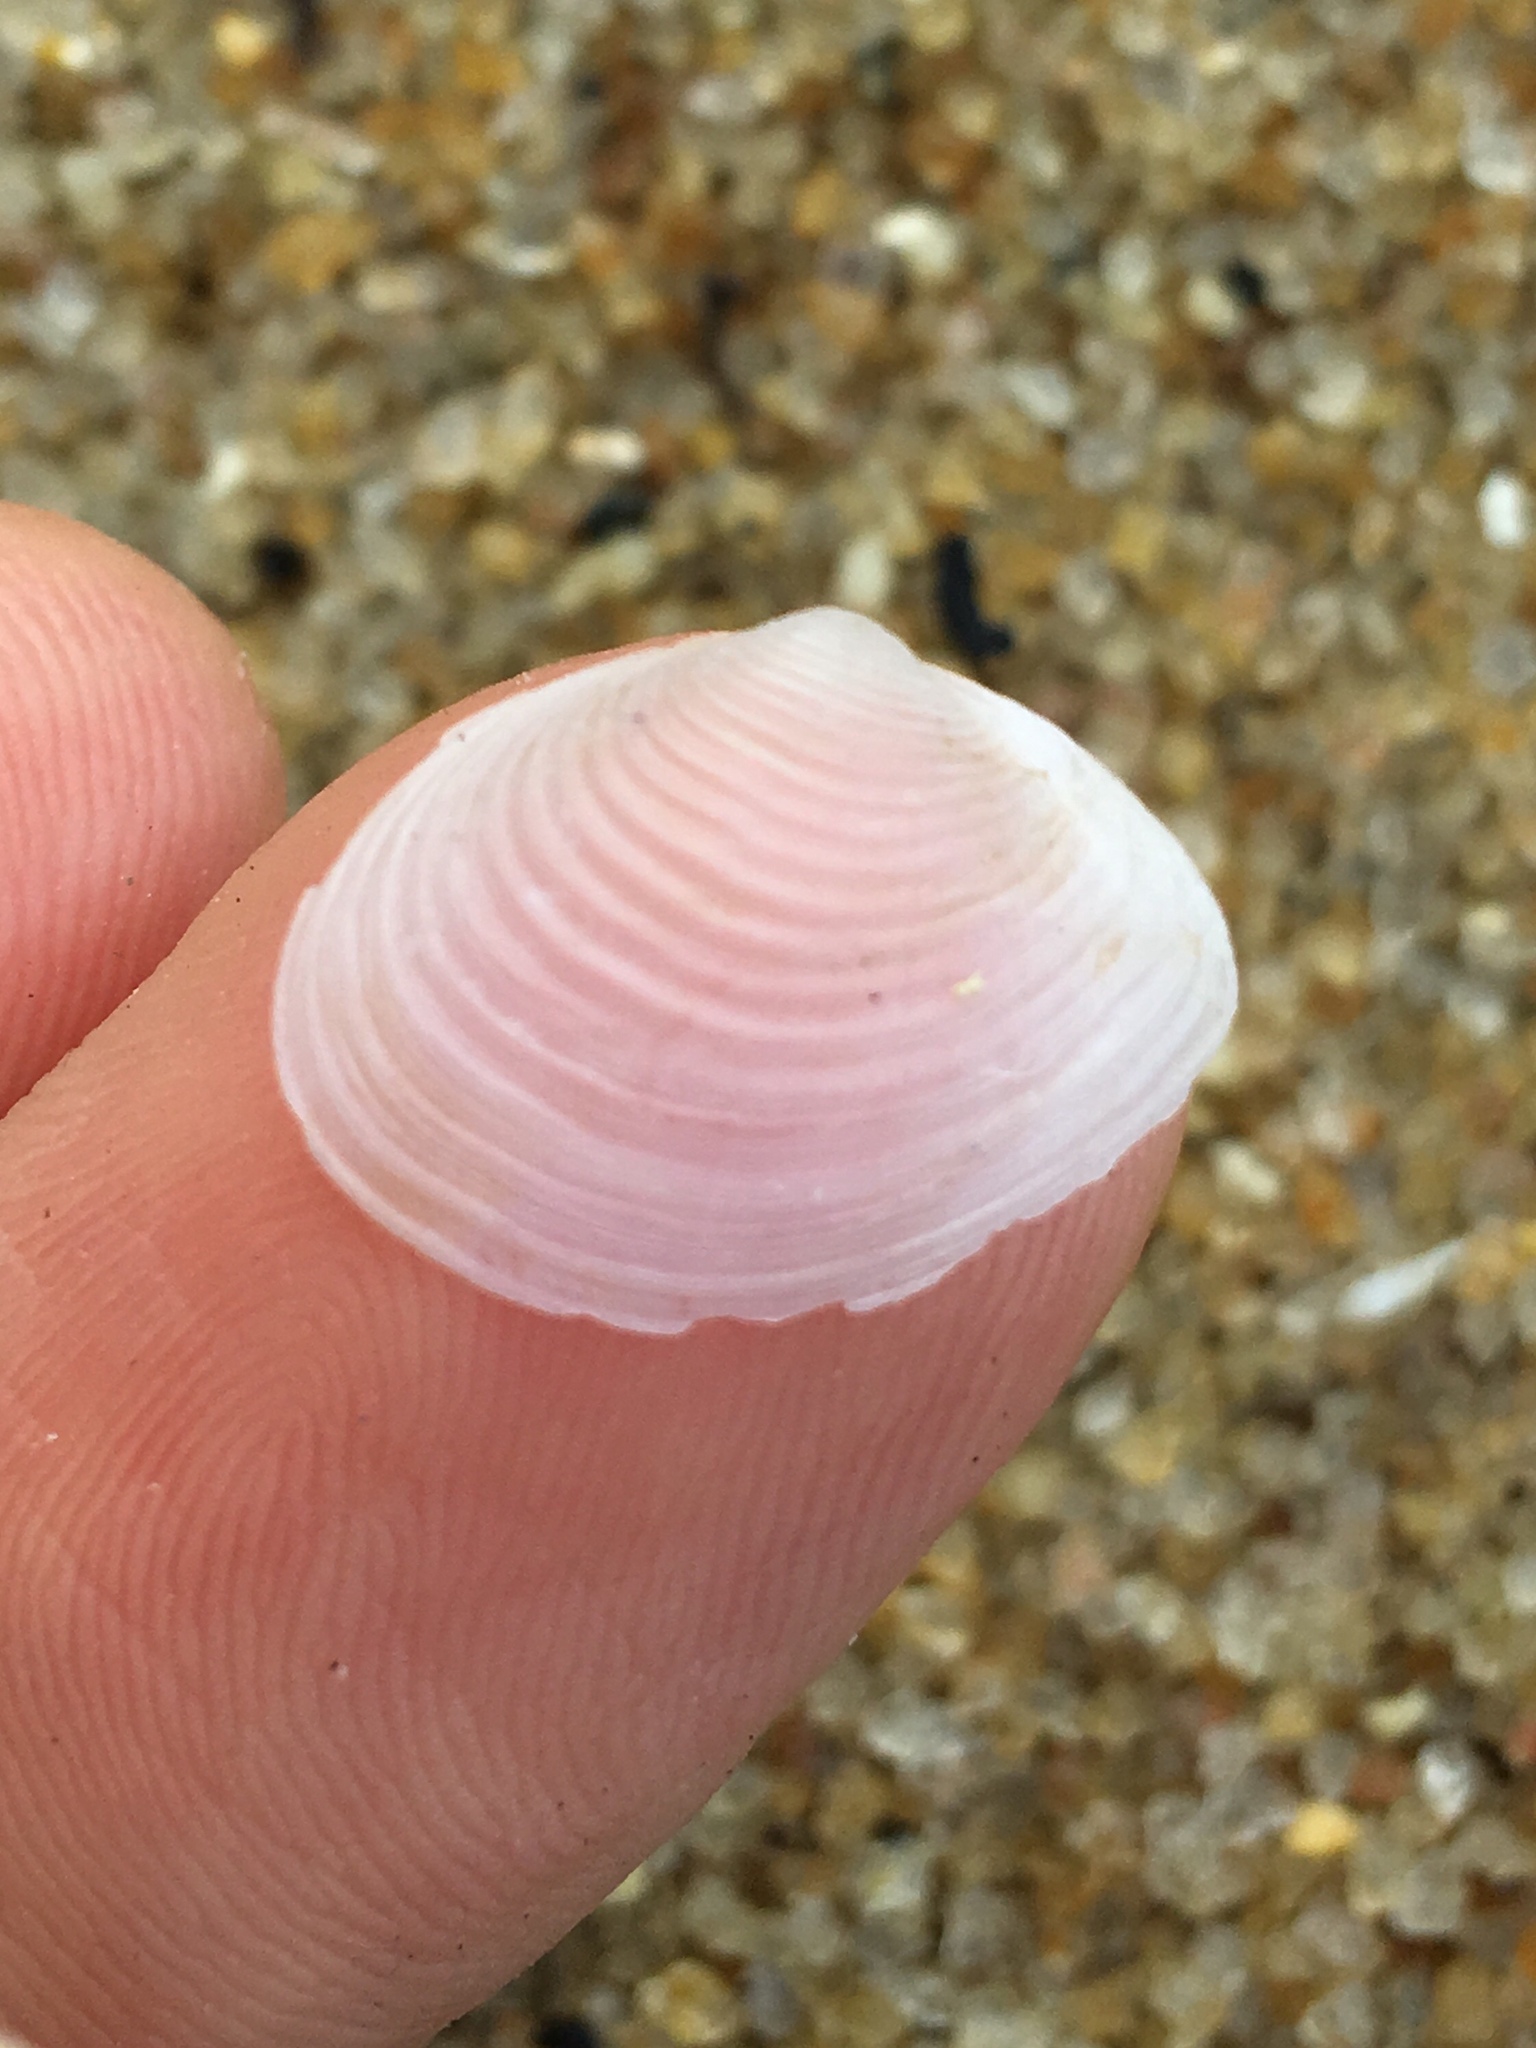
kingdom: Animalia
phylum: Mollusca
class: Bivalvia
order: Venerida
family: Anatinellidae
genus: Raeta
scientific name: Raeta plicatella
